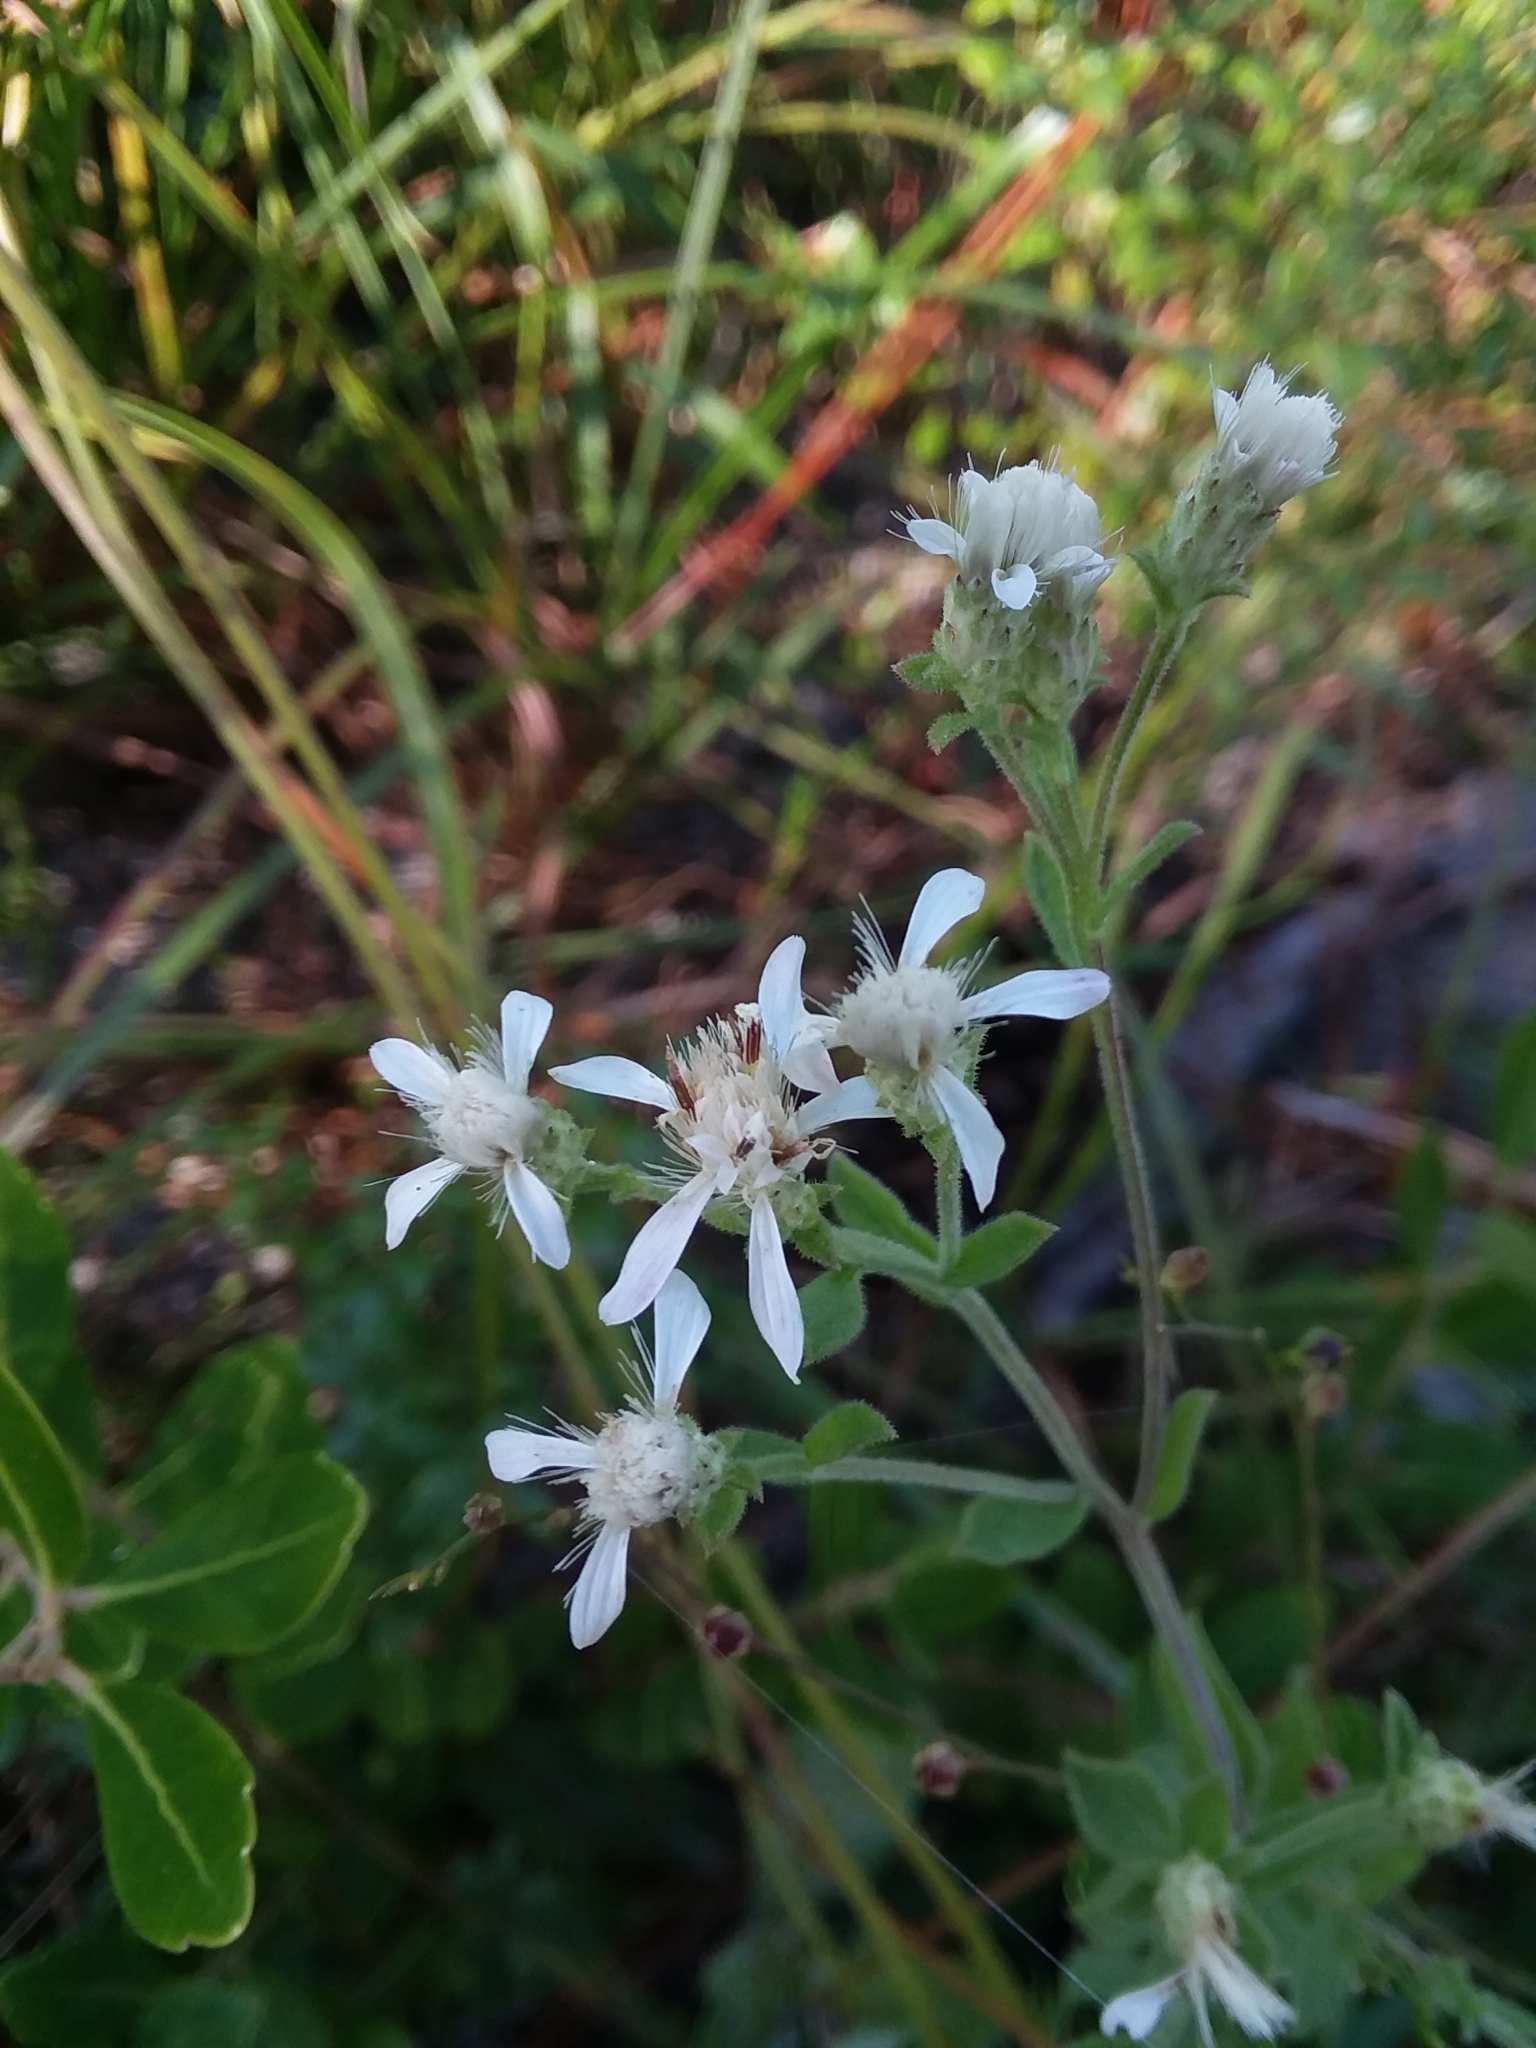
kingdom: Plantae
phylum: Tracheophyta
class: Magnoliopsida
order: Asterales
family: Asteraceae
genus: Sericocarpus
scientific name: Sericocarpus tortifolius
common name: Dixie aster
